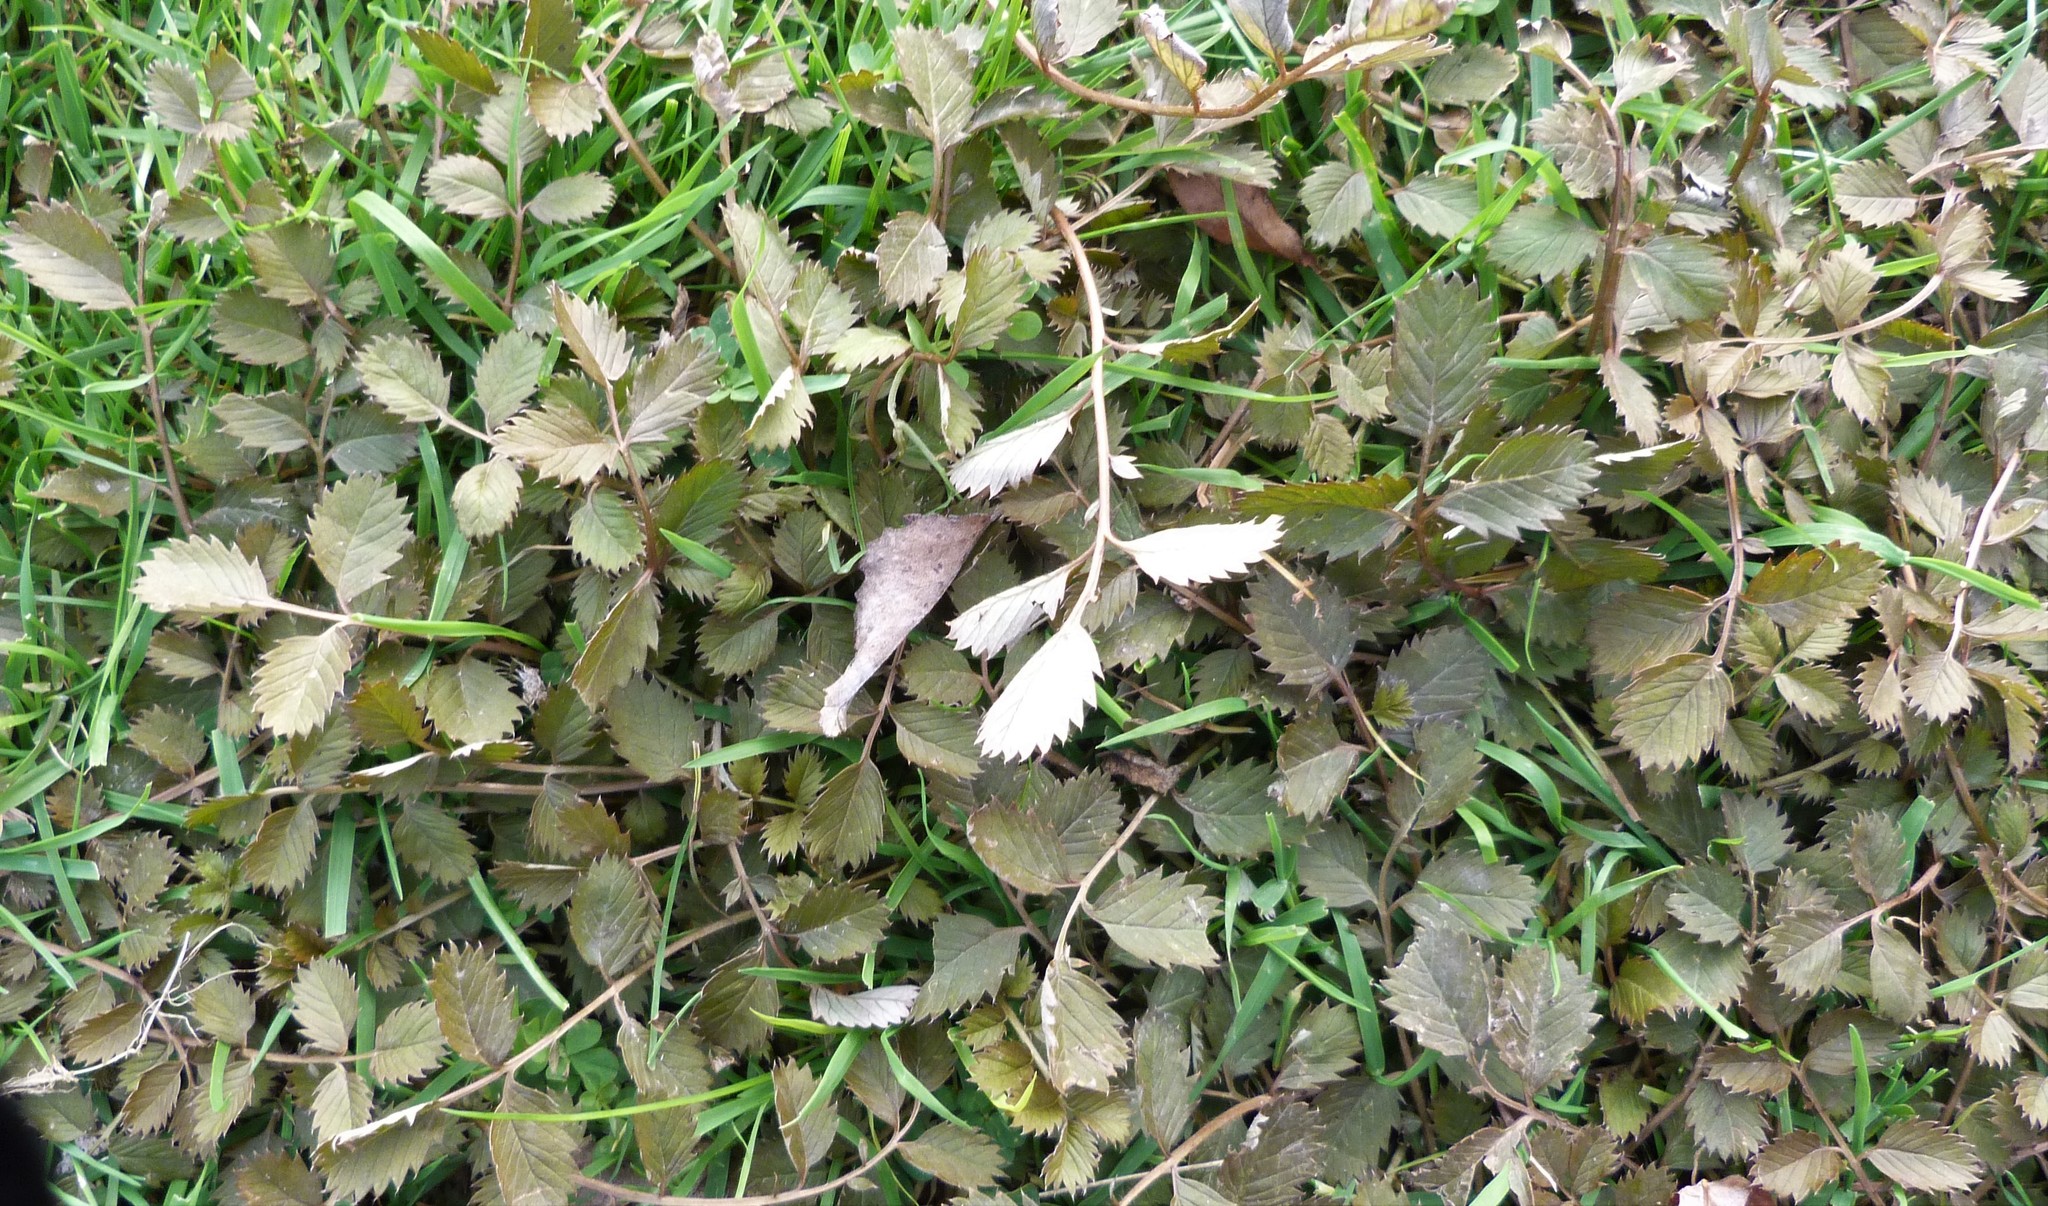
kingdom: Plantae
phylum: Tracheophyta
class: Magnoliopsida
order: Rosales
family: Rosaceae
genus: Argentina
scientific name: Argentina anserinoides
